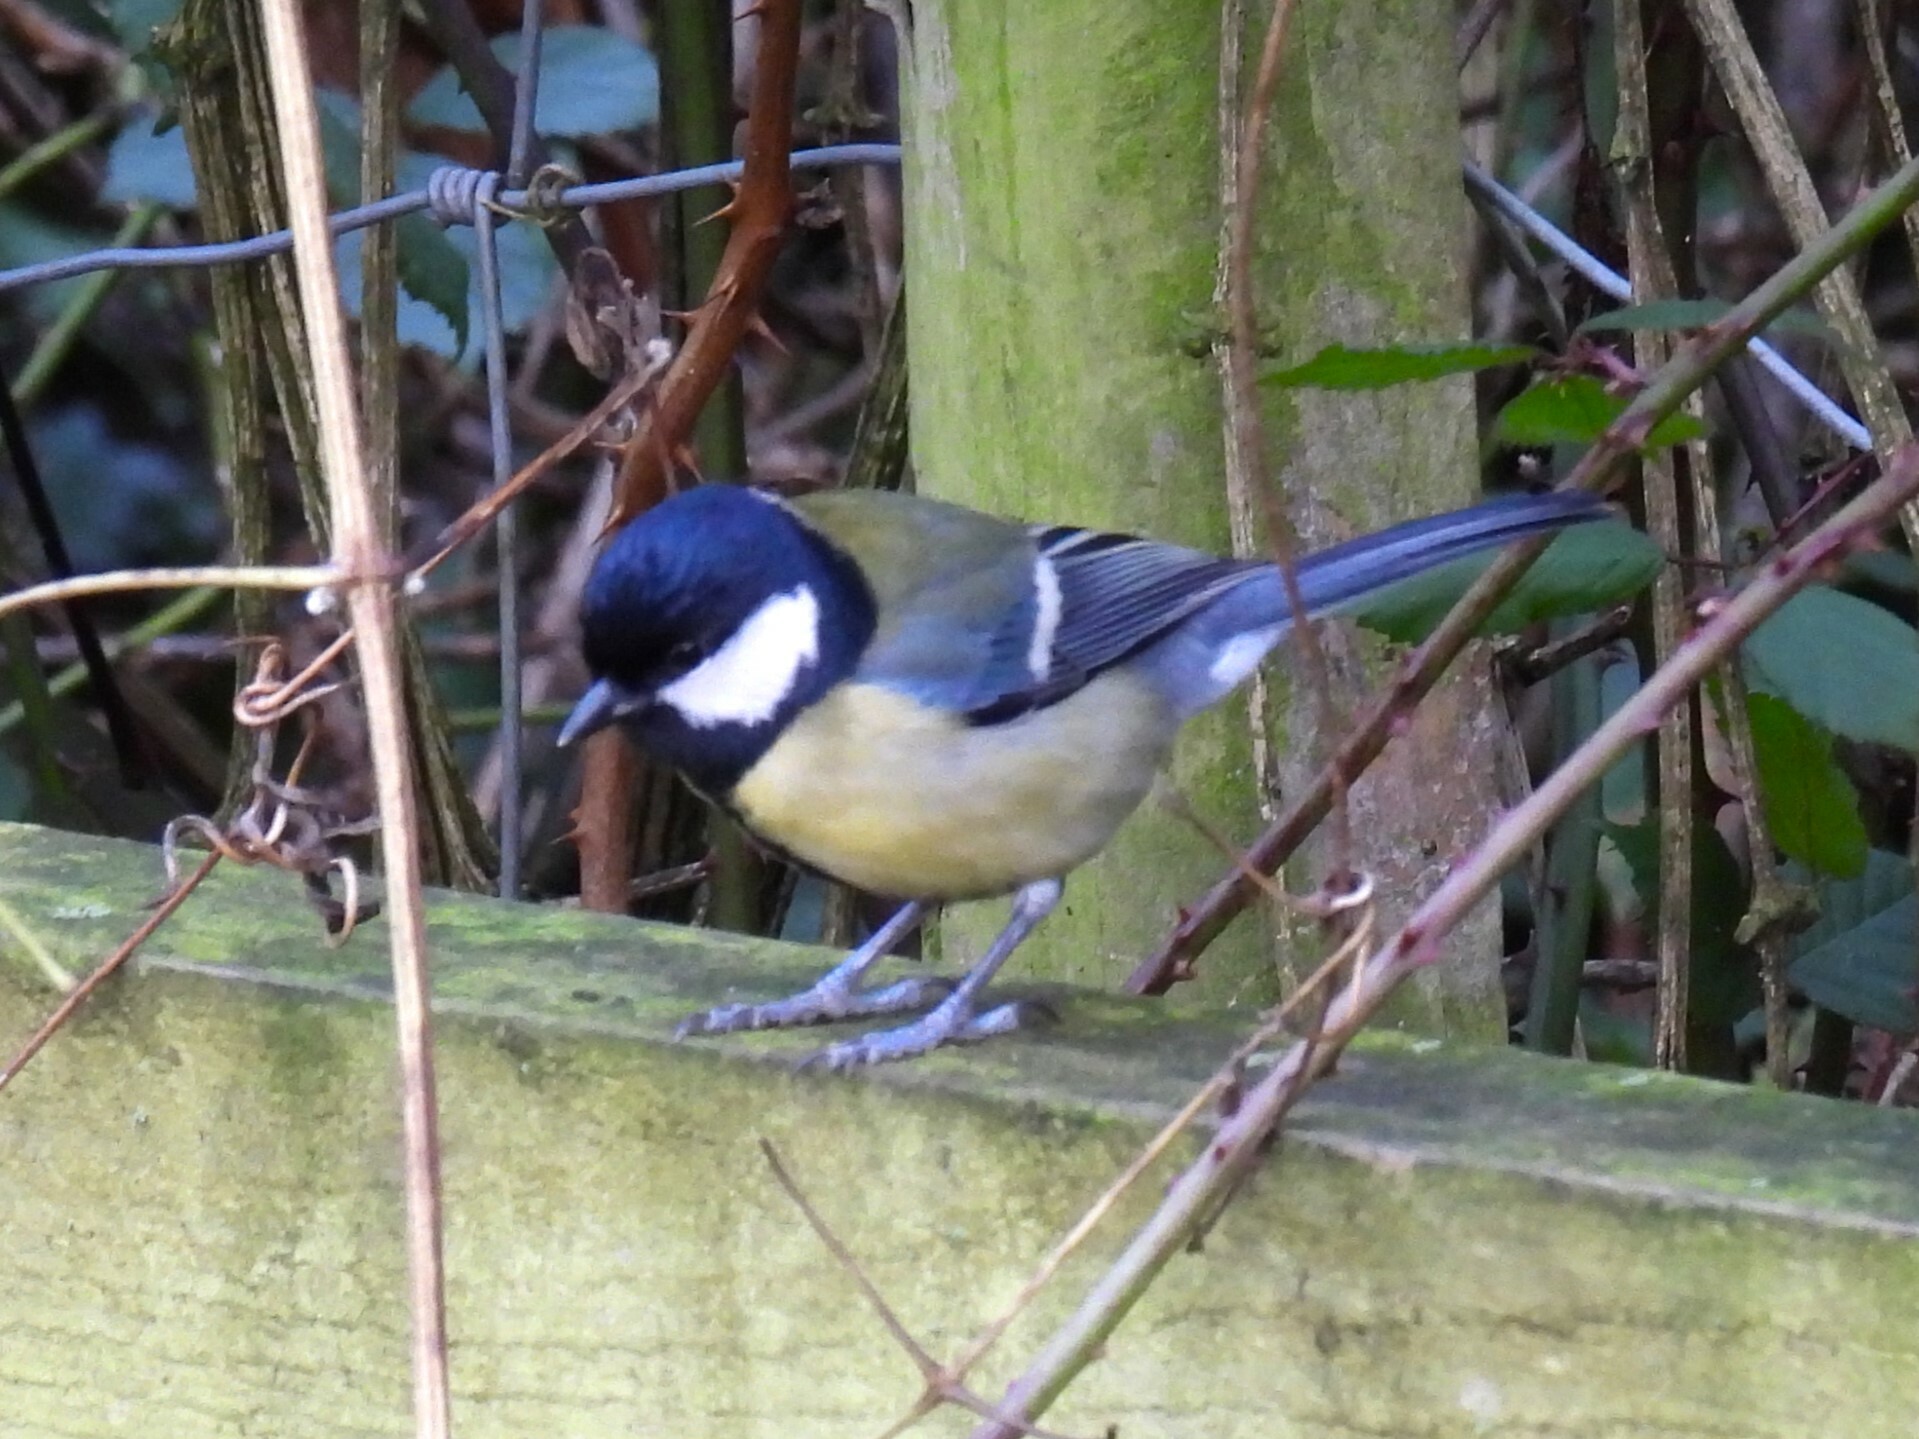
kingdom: Animalia
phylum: Chordata
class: Aves
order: Passeriformes
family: Paridae
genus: Parus
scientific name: Parus major
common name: Great tit
